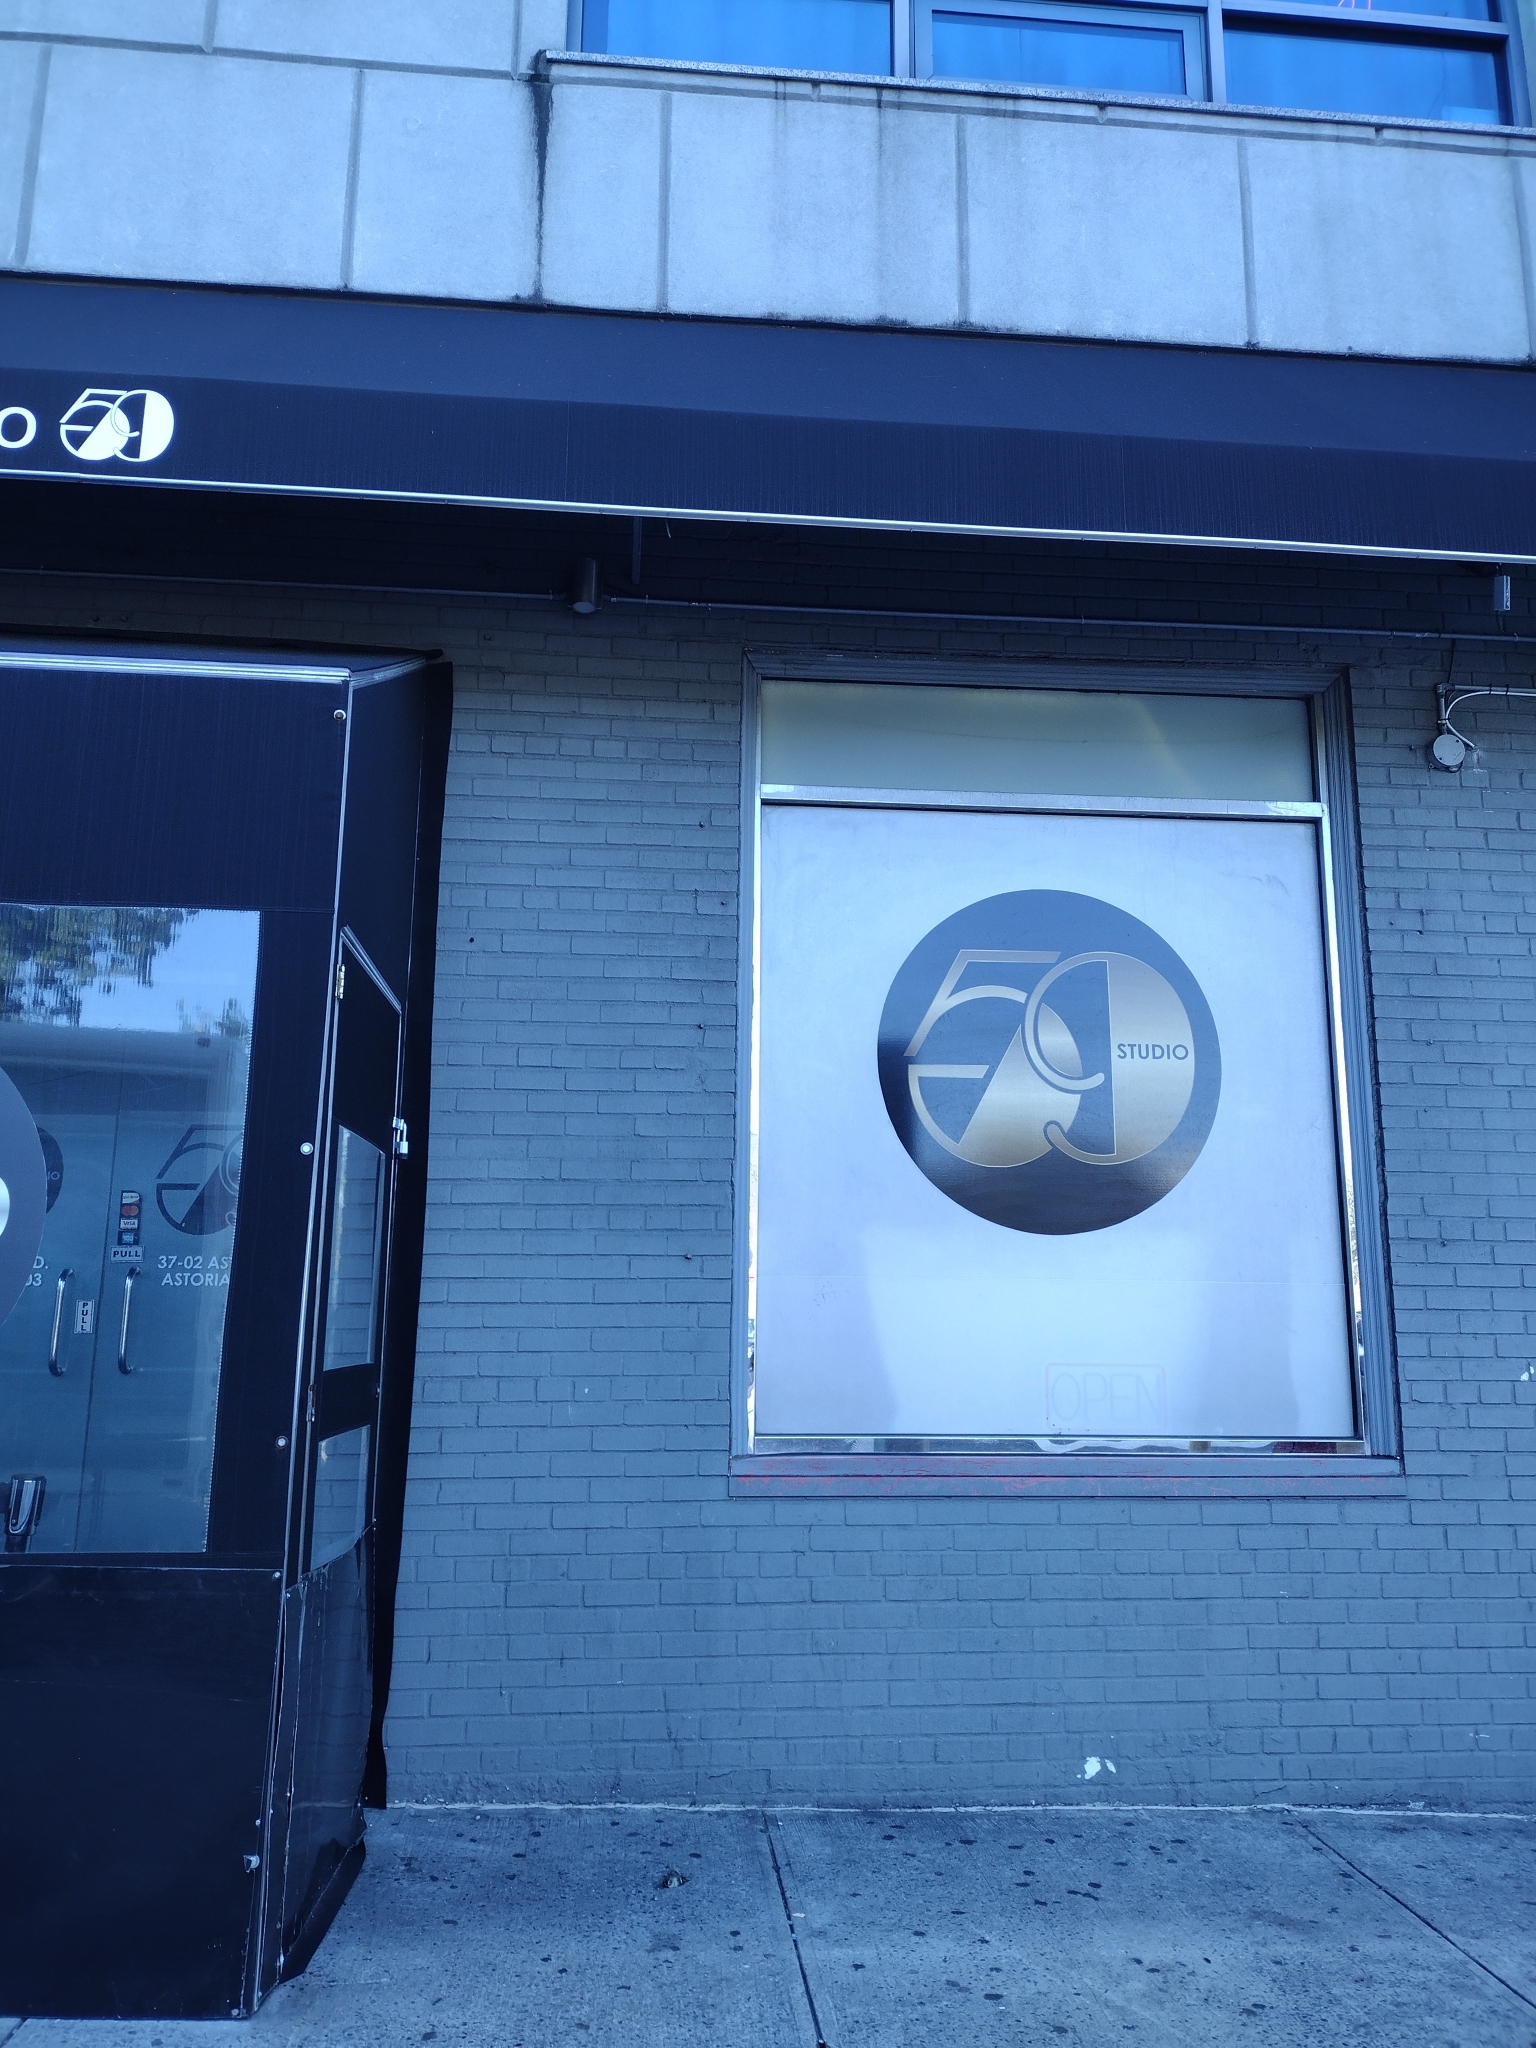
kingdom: Animalia
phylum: Chordata
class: Aves
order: Passeriformes
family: Regulidae
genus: Regulus
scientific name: Regulus satrapa
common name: Golden-crowned kinglet
